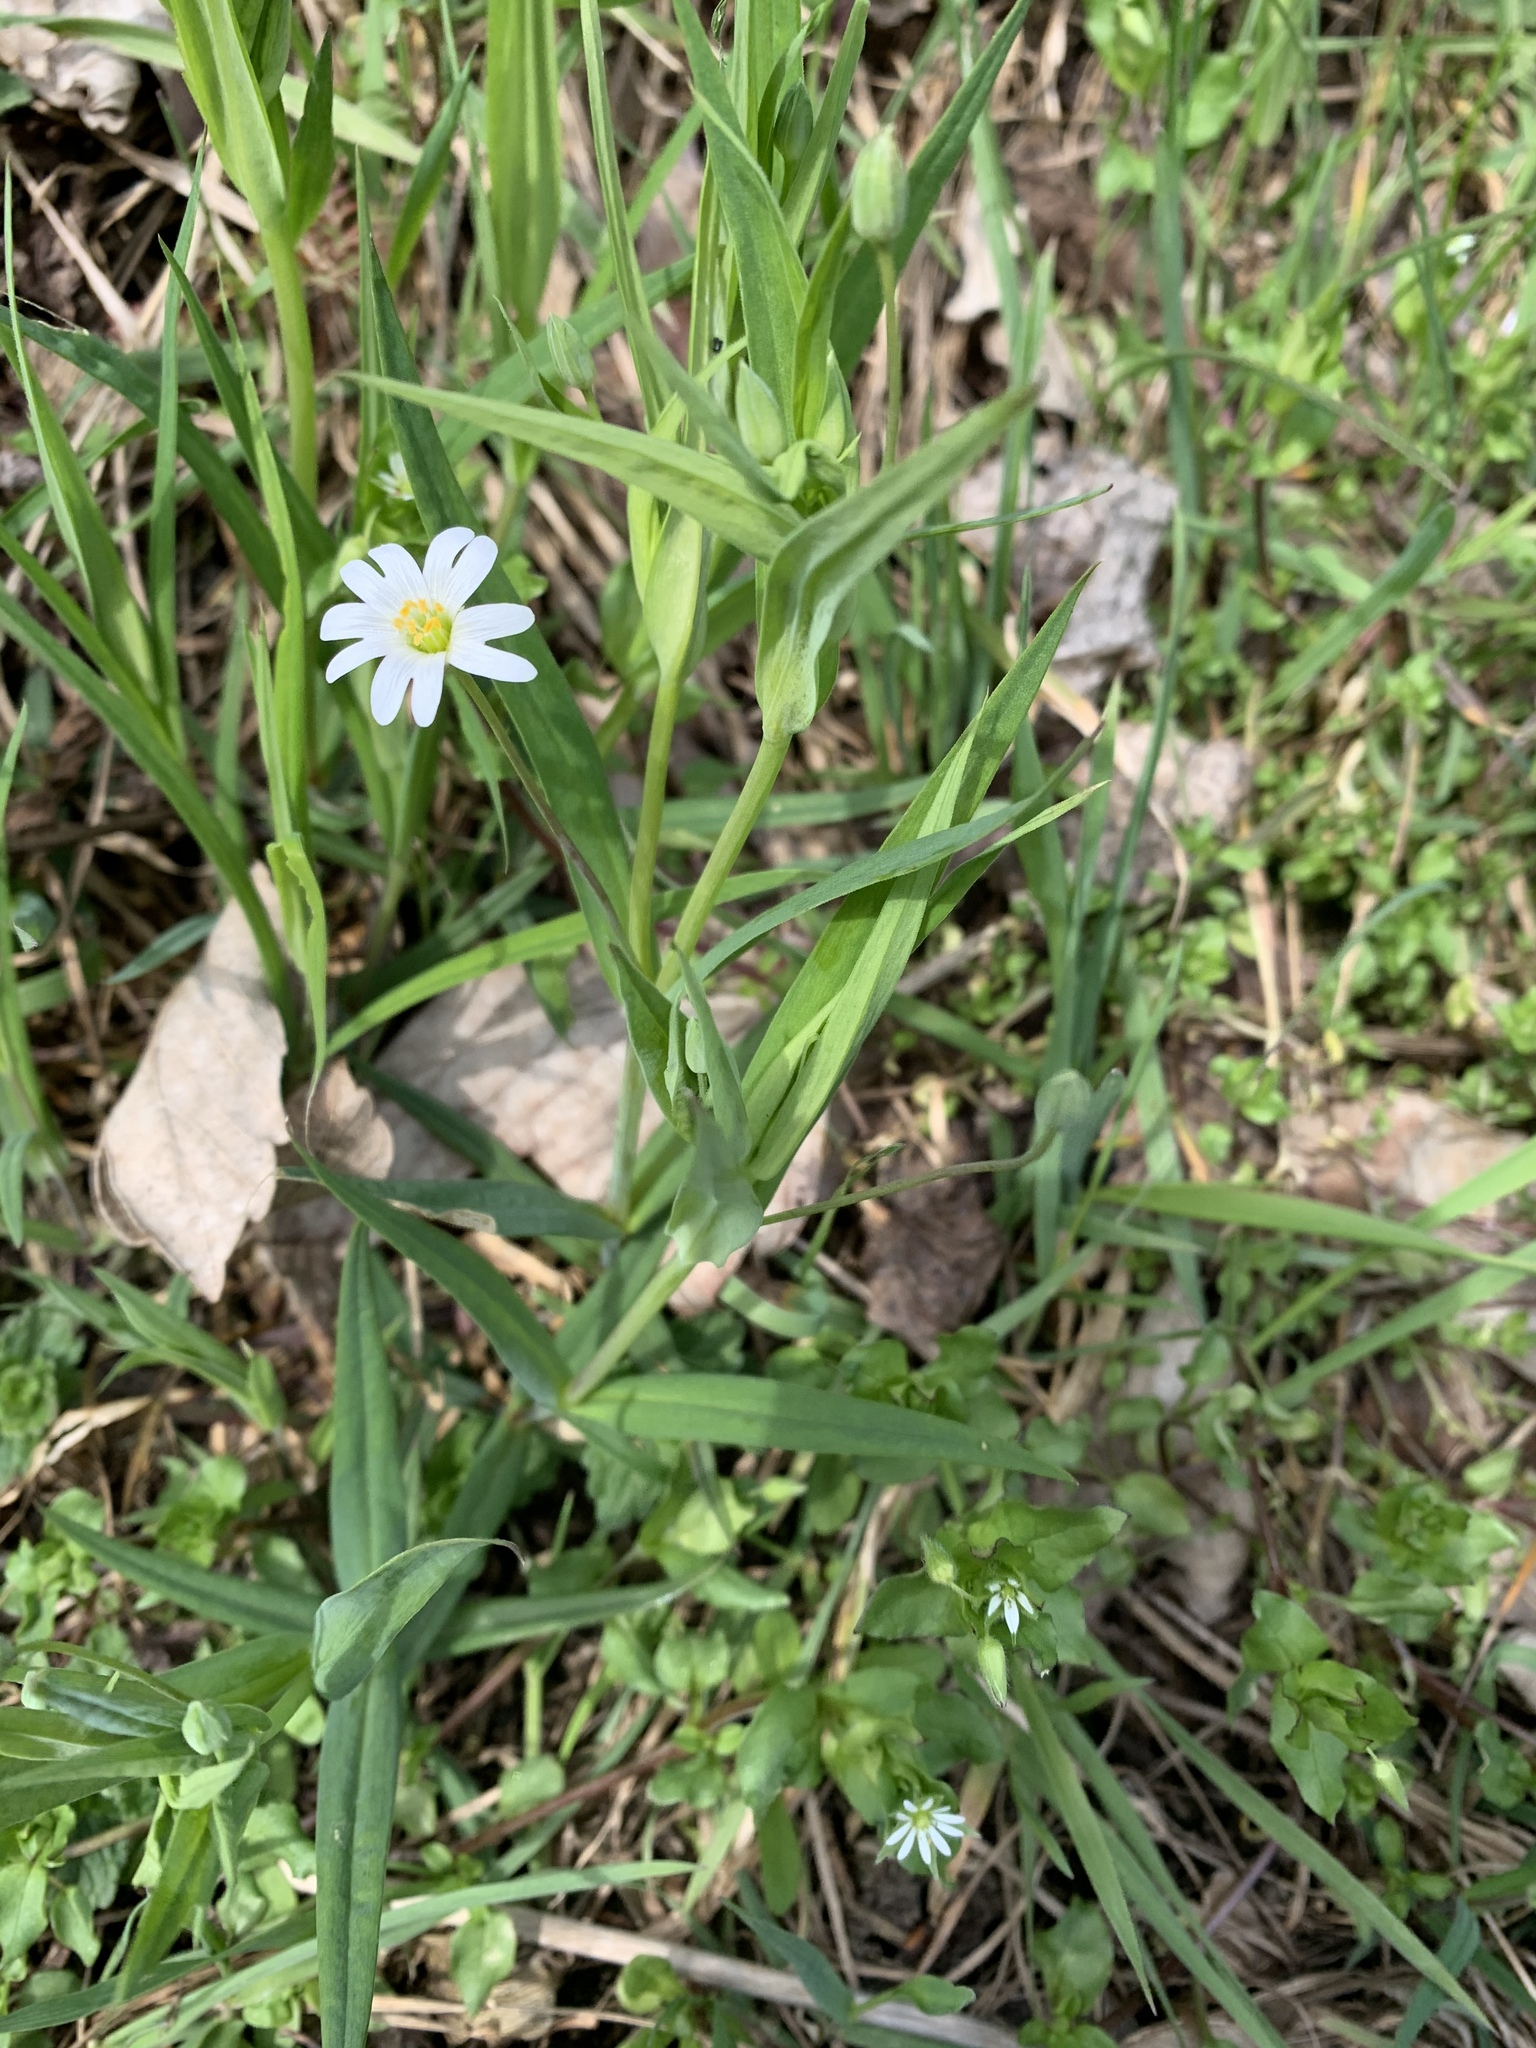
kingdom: Plantae
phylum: Tracheophyta
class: Magnoliopsida
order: Caryophyllales
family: Caryophyllaceae
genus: Rabelera
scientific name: Rabelera holostea
